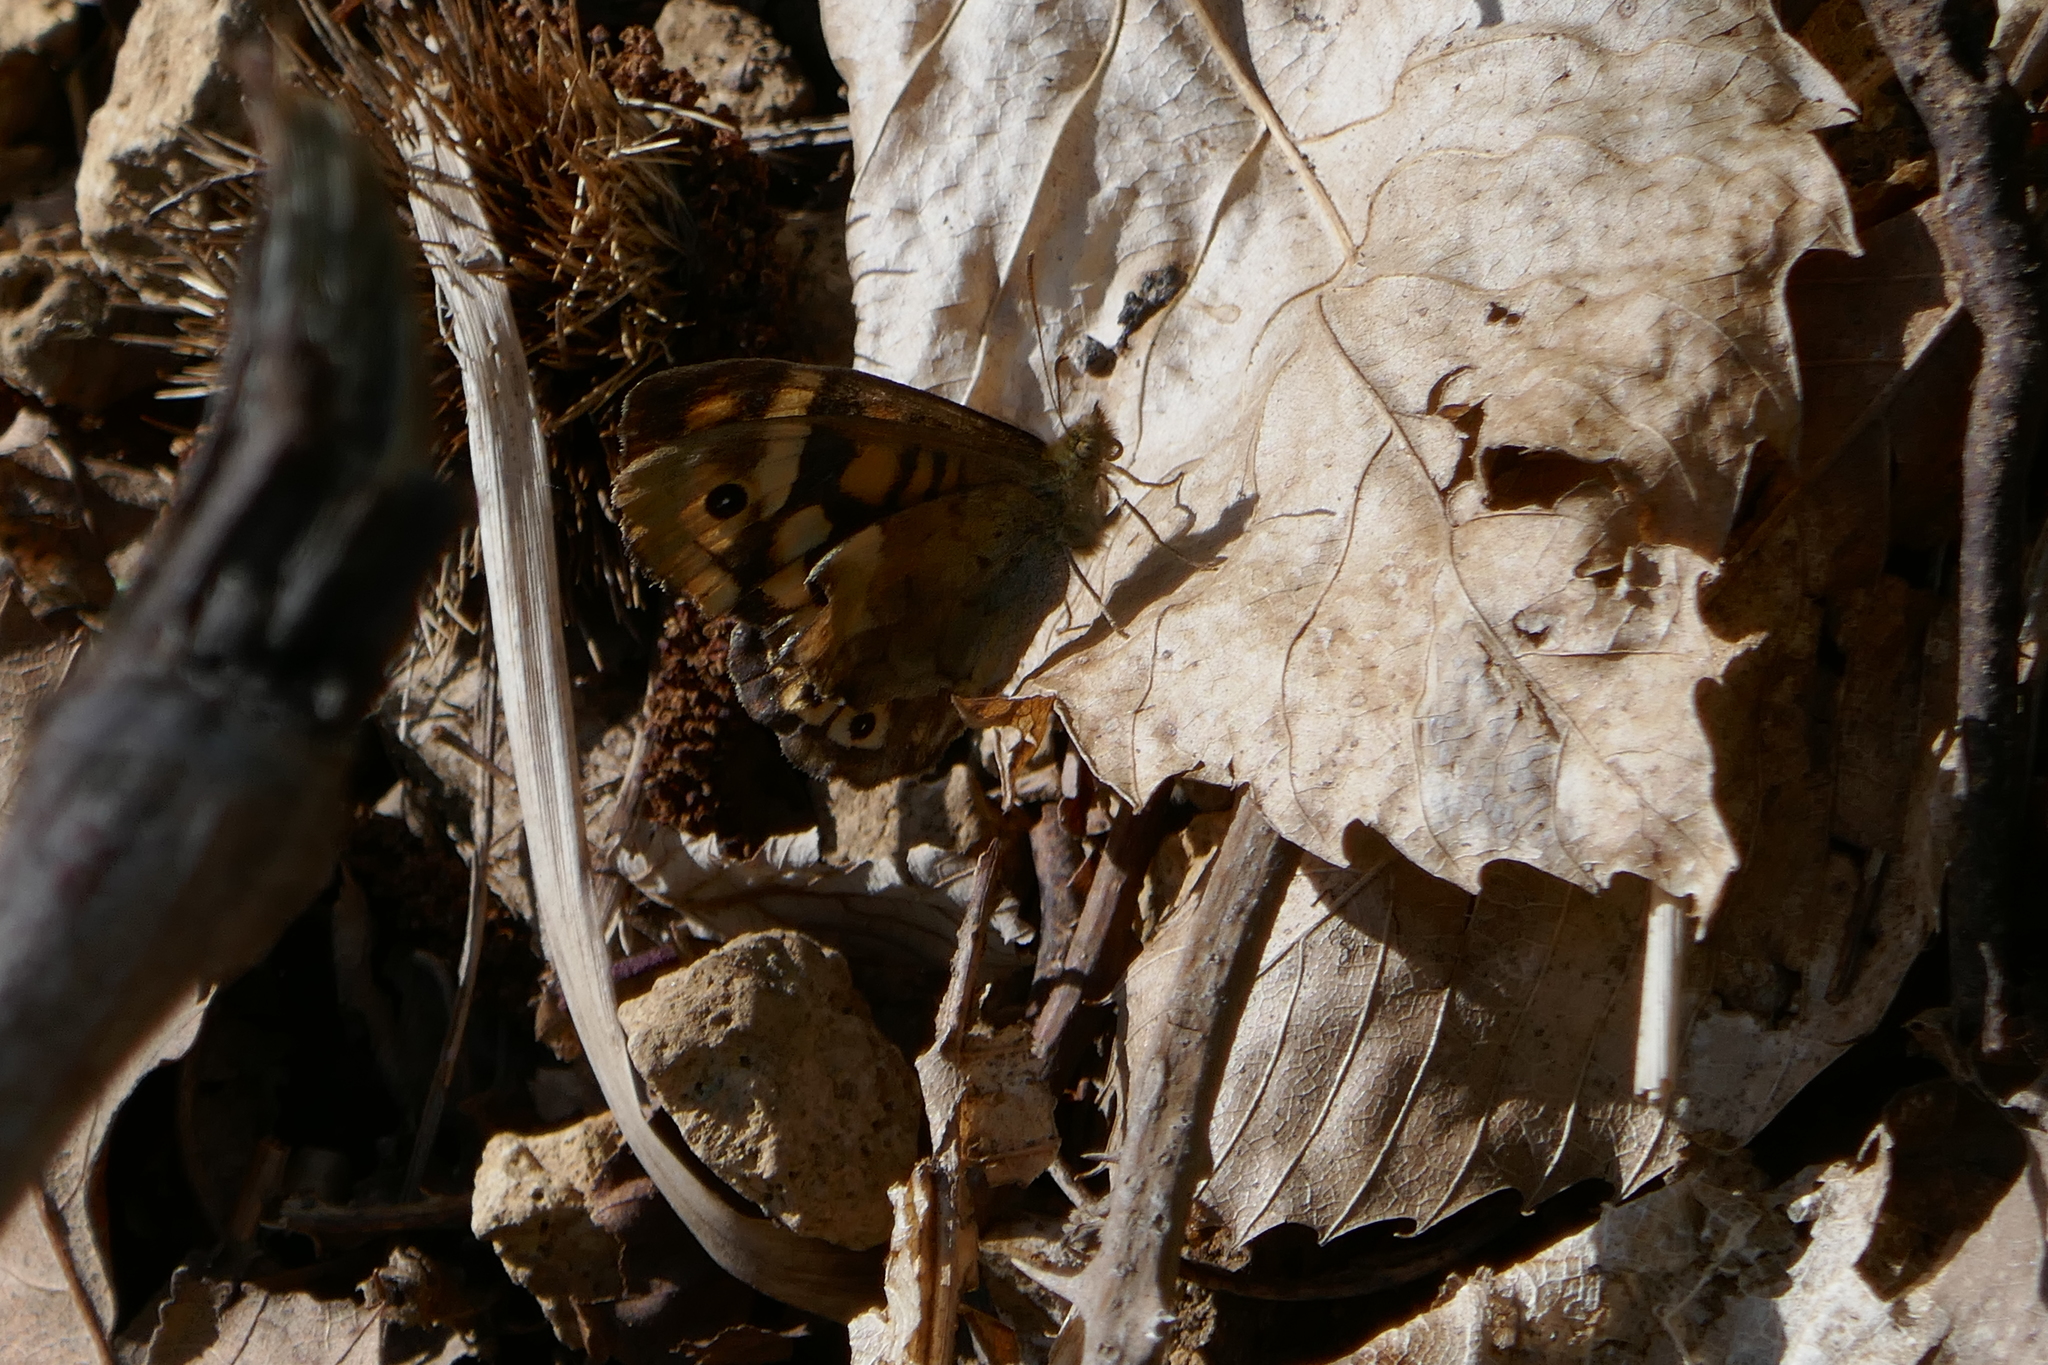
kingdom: Animalia
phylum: Arthropoda
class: Insecta
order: Lepidoptera
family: Nymphalidae
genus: Pararge
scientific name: Pararge aegeria
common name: Speckled wood
